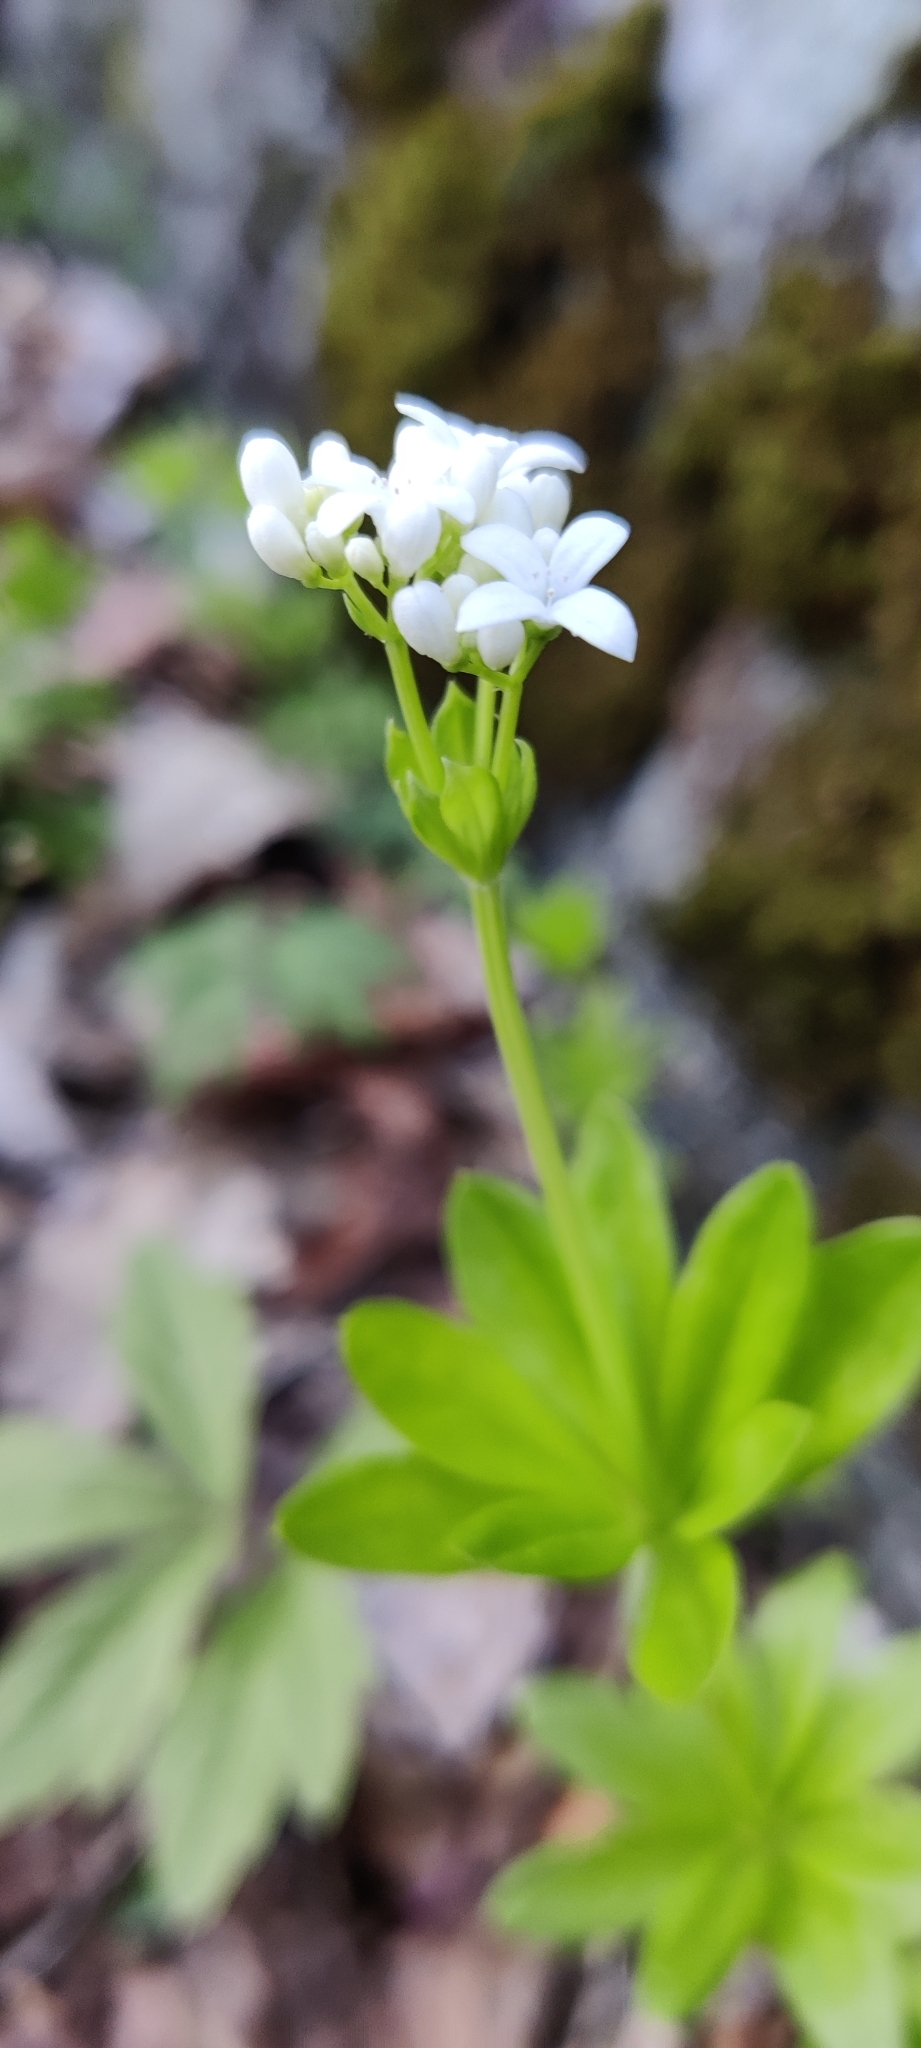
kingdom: Plantae
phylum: Tracheophyta
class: Magnoliopsida
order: Gentianales
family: Rubiaceae
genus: Galium
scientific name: Galium odoratum
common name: Sweet woodruff
